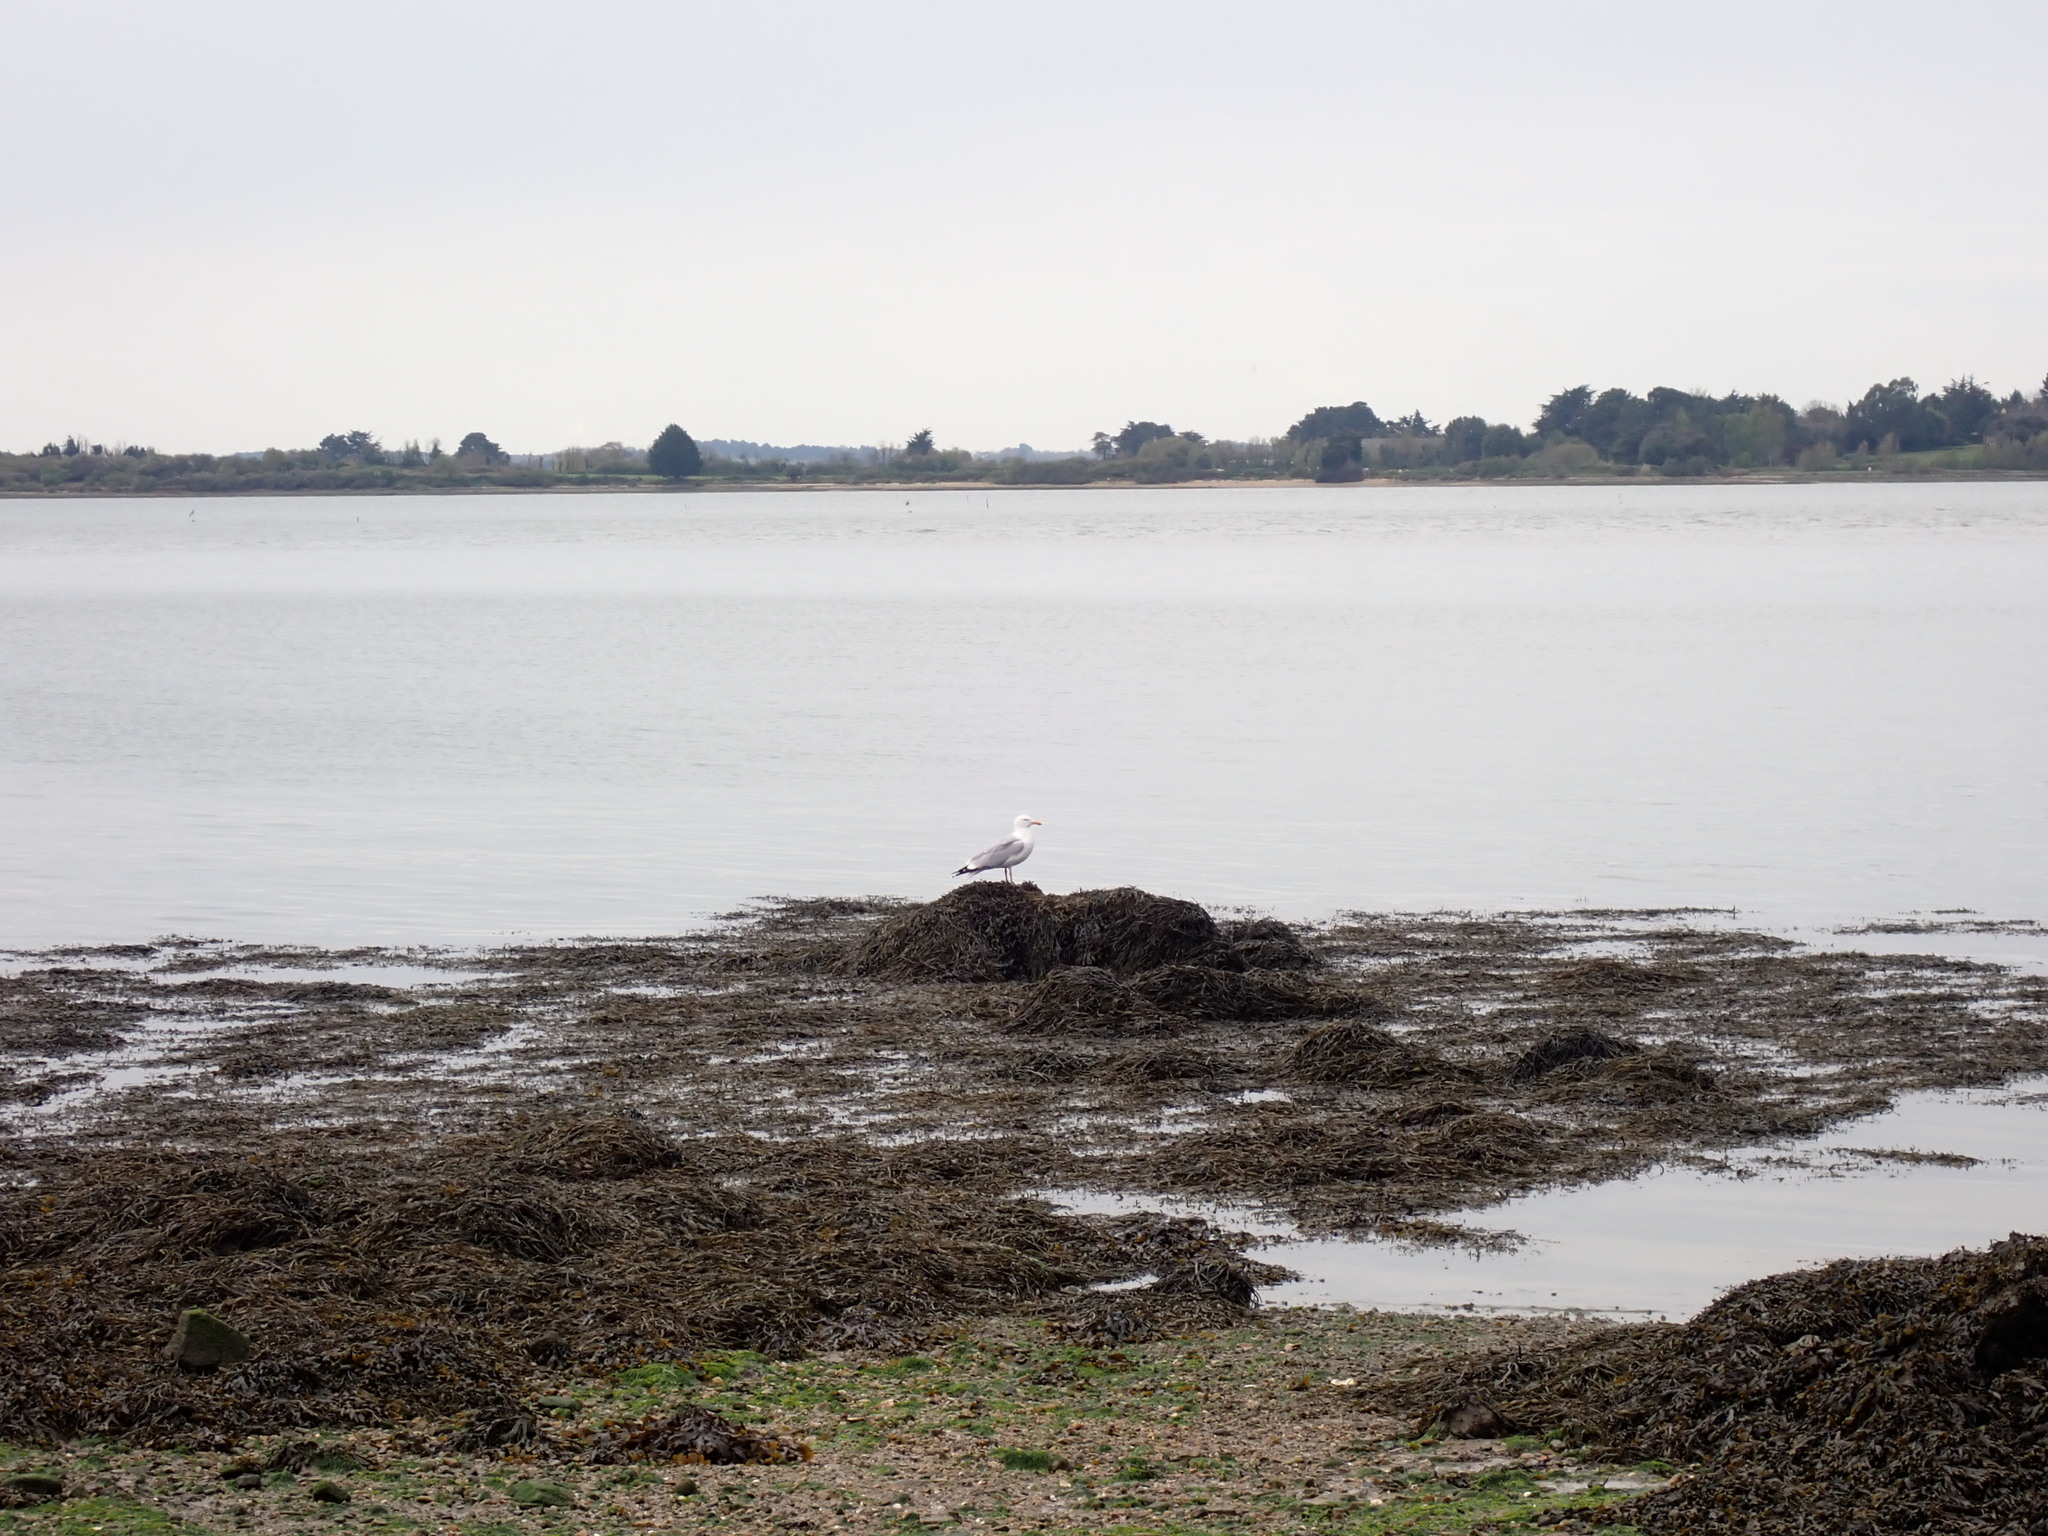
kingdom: Animalia
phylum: Chordata
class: Aves
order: Charadriiformes
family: Laridae
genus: Larus
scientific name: Larus argentatus
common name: Herring gull
